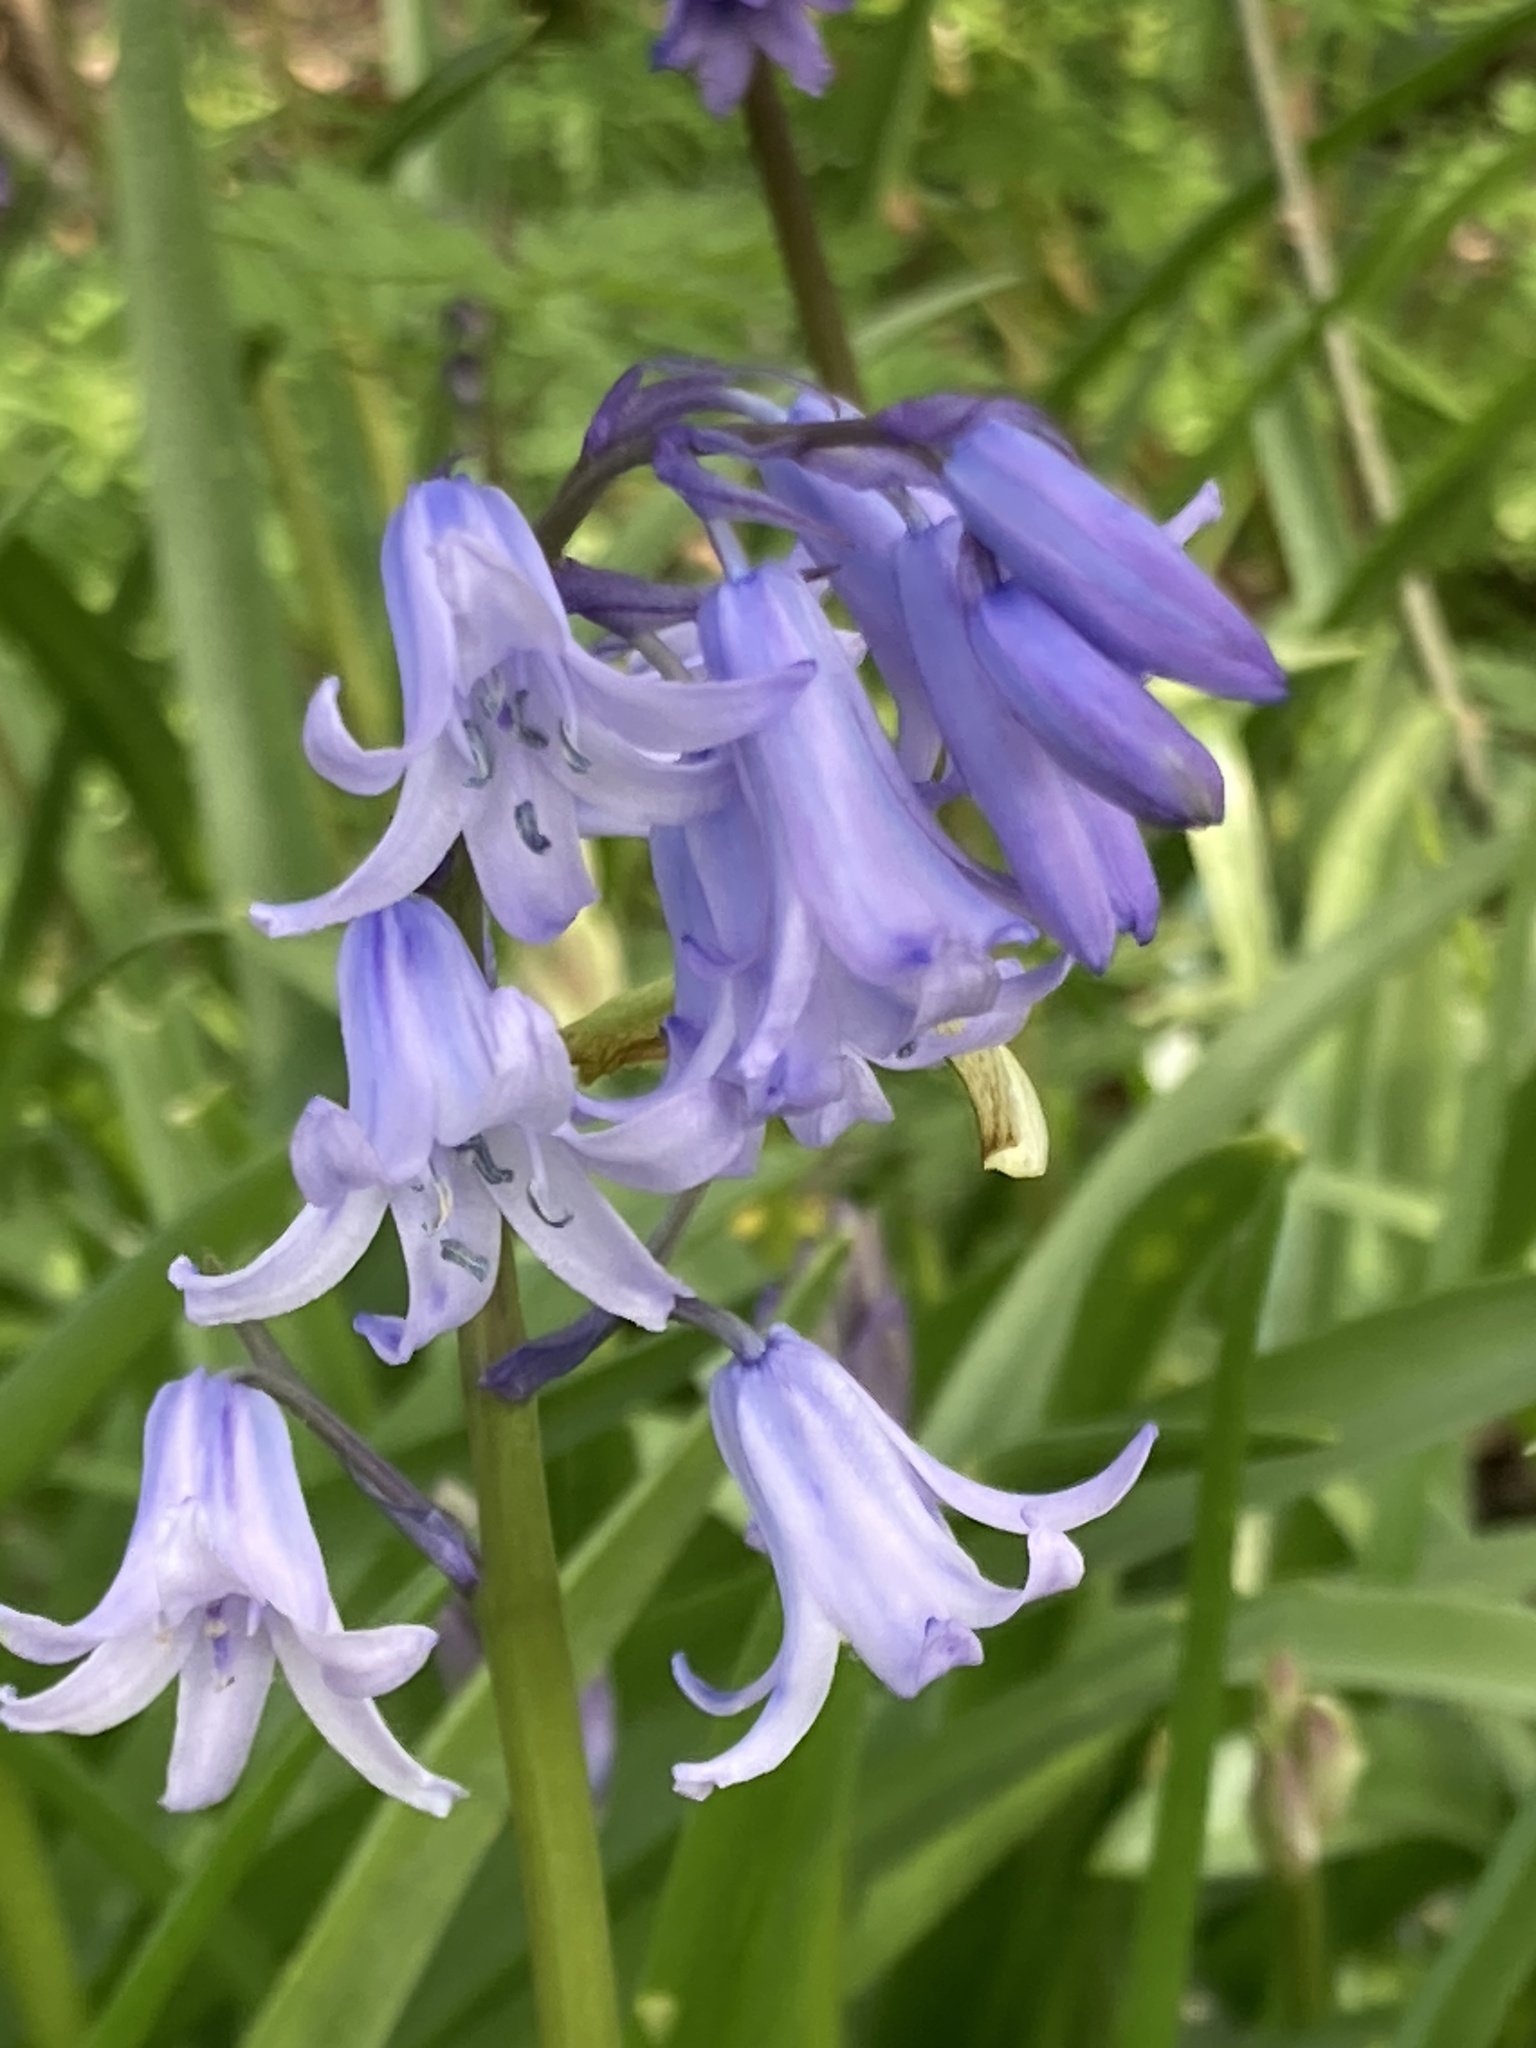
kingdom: Plantae
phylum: Tracheophyta
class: Liliopsida
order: Asparagales
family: Asparagaceae
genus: Hyacinthoides
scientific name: Hyacinthoides hispanica
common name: Spanish bluebell
